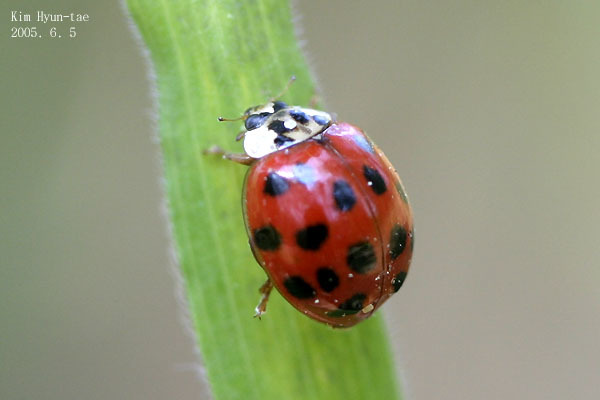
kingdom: Animalia
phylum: Arthropoda
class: Insecta
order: Coleoptera
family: Coccinellidae
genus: Harmonia
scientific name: Harmonia axyridis
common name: Harlequin ladybird
